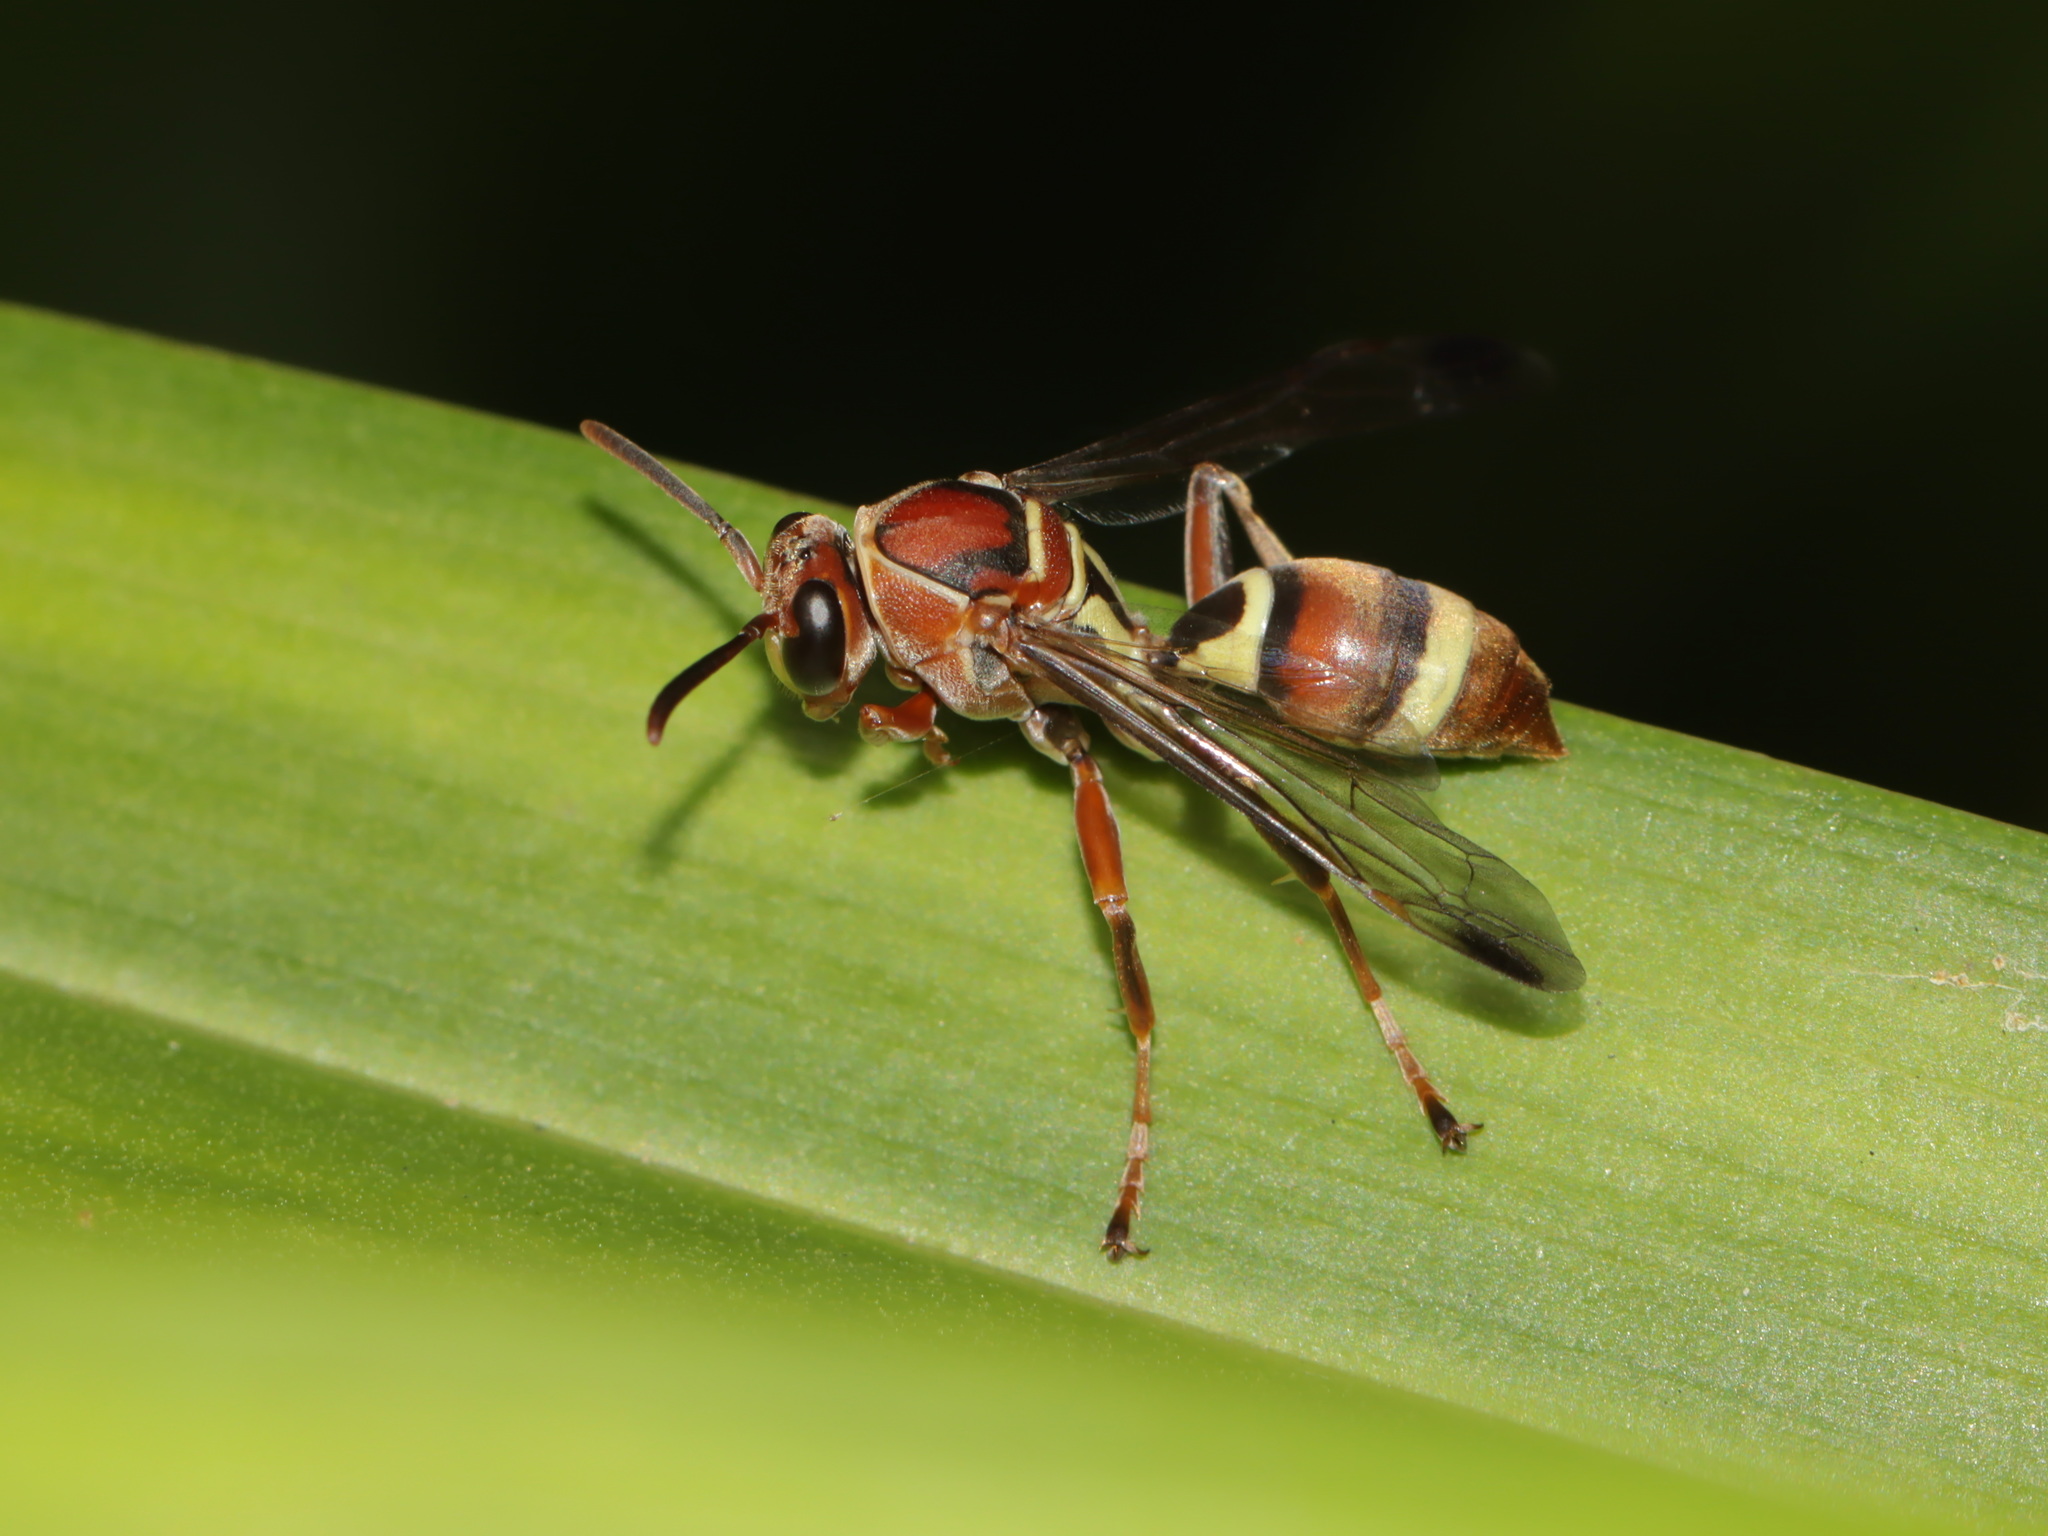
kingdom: Animalia
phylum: Arthropoda
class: Insecta
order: Hymenoptera
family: Eumenidae
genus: Polistes
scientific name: Polistes stigma
